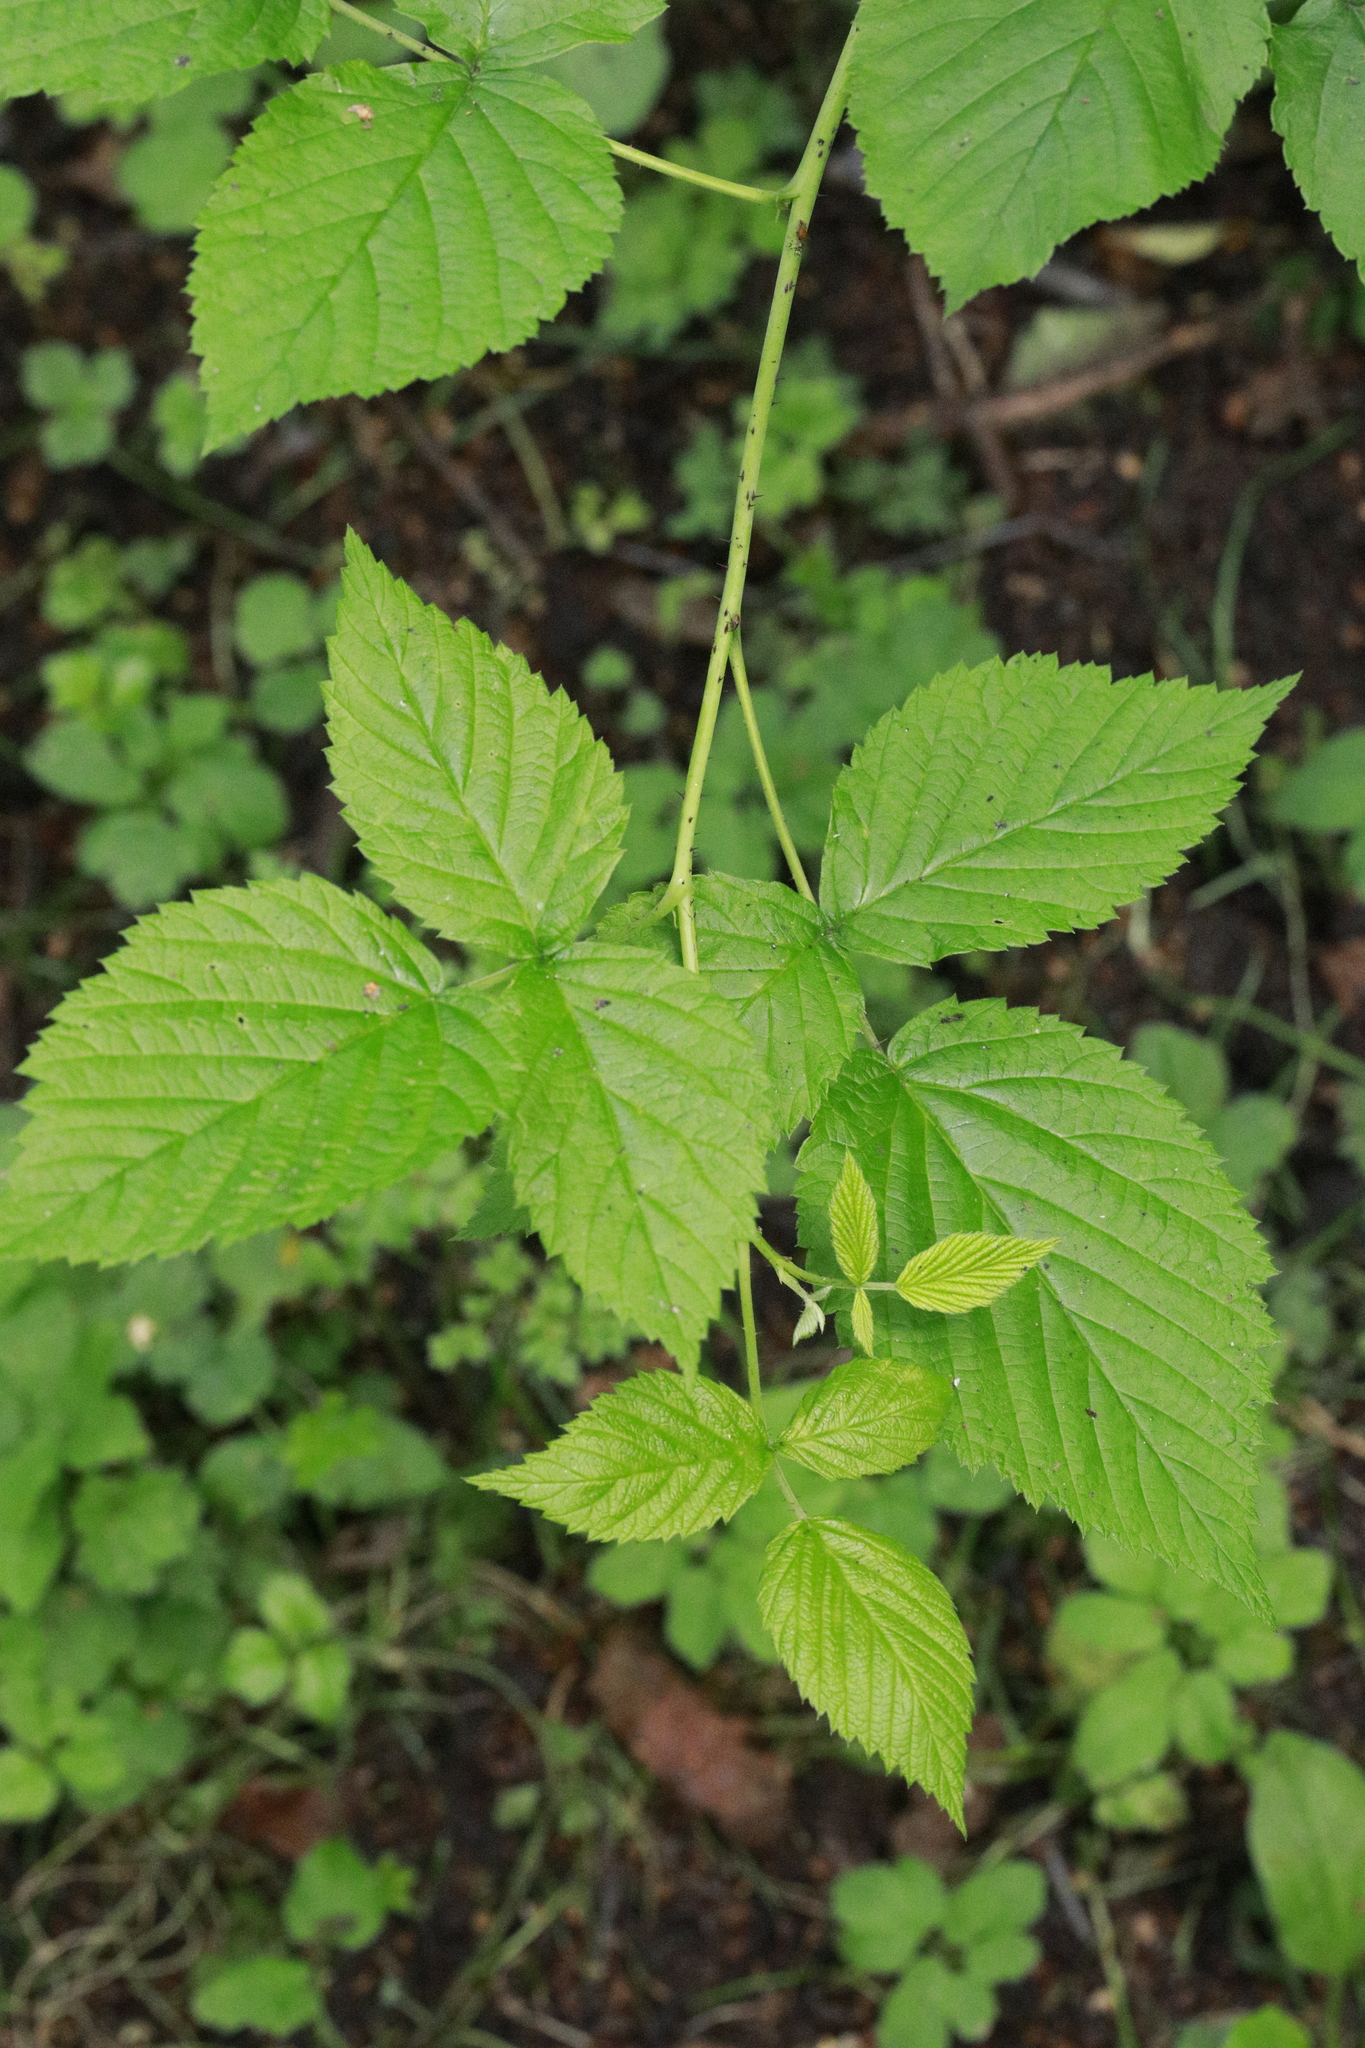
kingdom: Plantae
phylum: Tracheophyta
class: Magnoliopsida
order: Rosales
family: Rosaceae
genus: Rubus
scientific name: Rubus idaeus
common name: Raspberry
